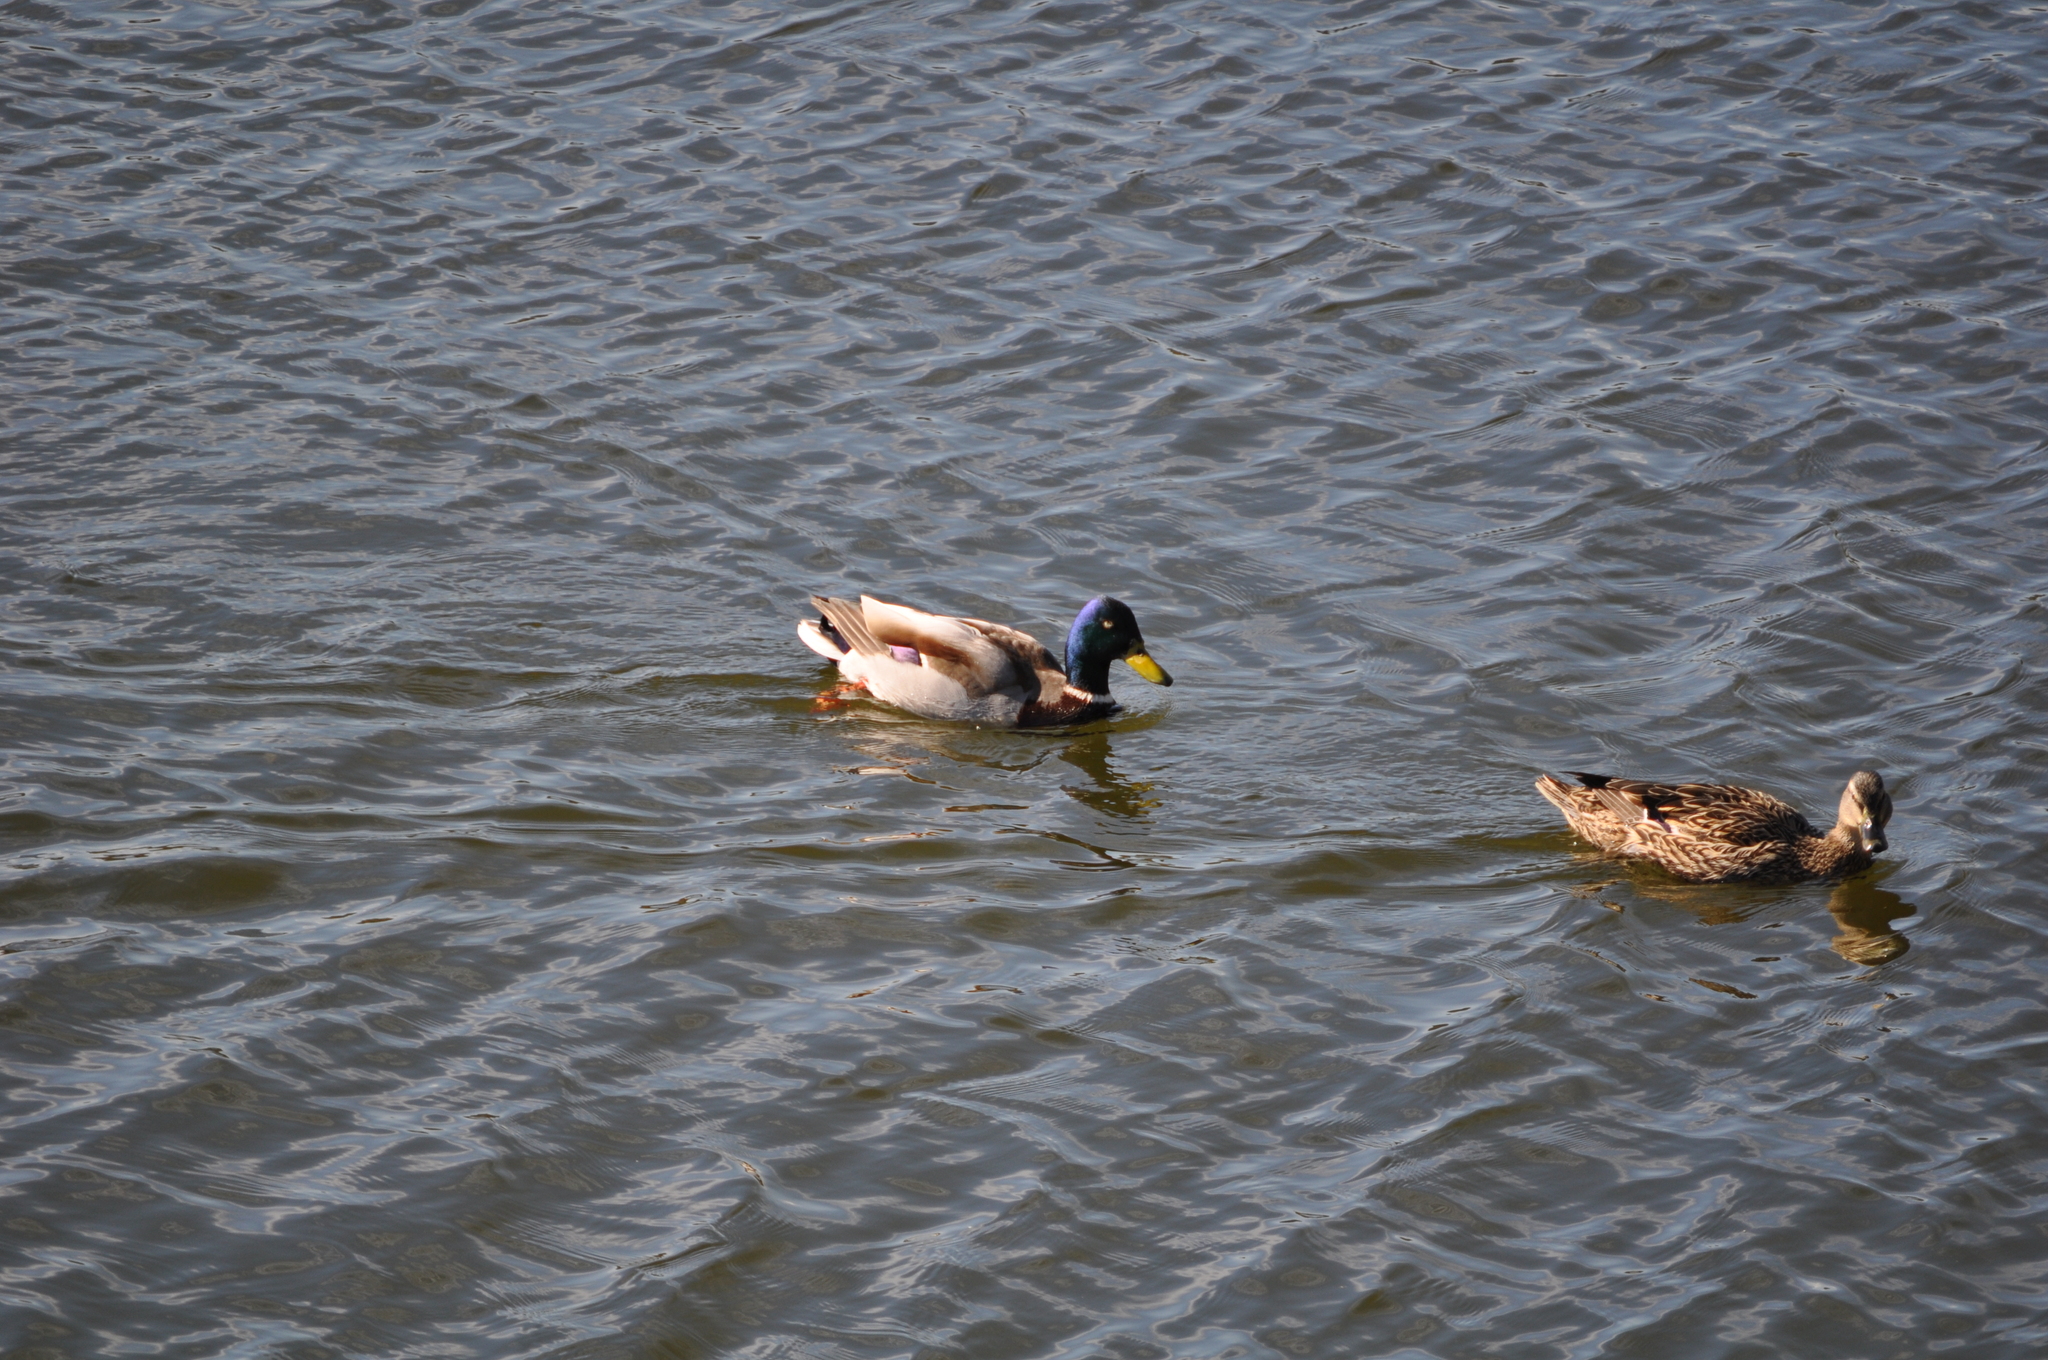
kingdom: Animalia
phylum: Chordata
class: Aves
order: Anseriformes
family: Anatidae
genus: Anas
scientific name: Anas platyrhynchos
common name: Mallard
